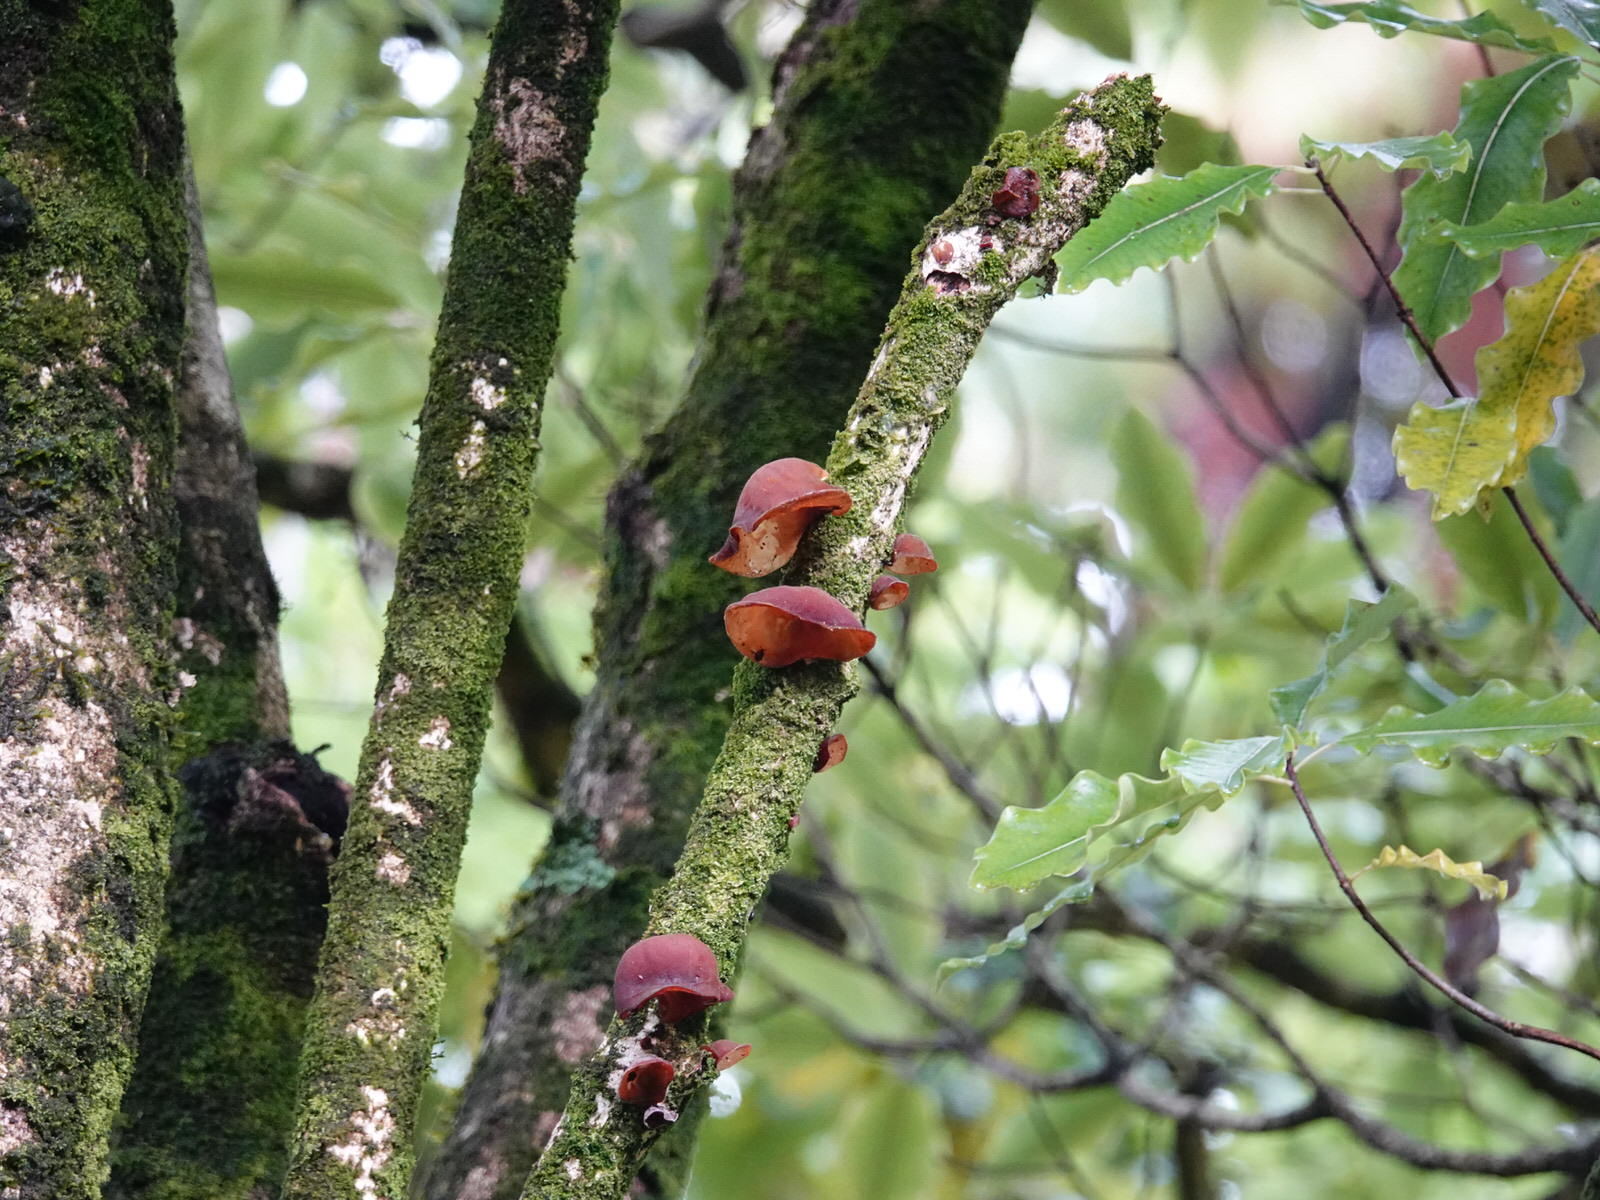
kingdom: Fungi
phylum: Basidiomycota
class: Agaricomycetes
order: Auriculariales
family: Auriculariaceae
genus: Auricularia
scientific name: Auricularia cornea
